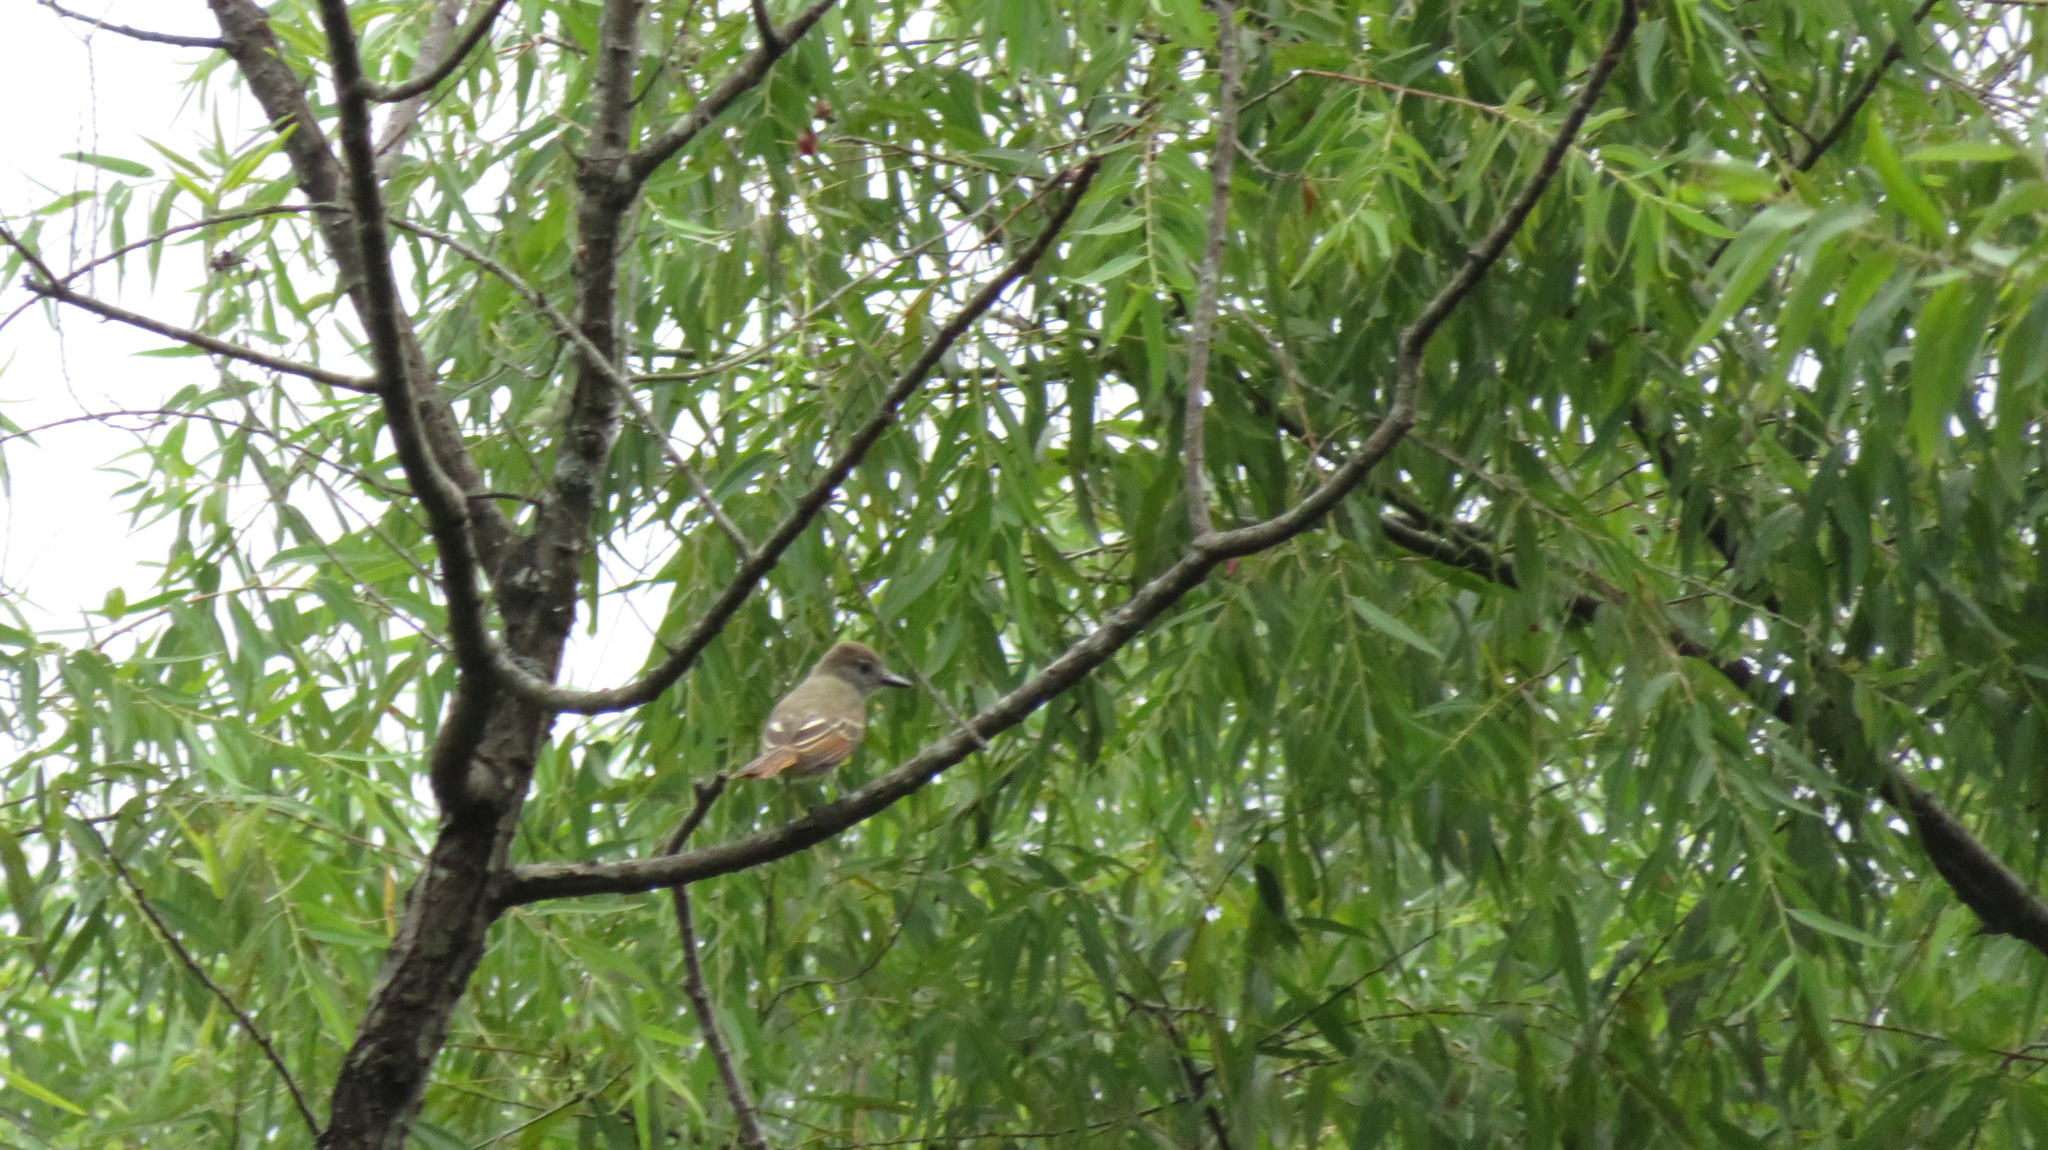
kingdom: Animalia
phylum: Chordata
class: Aves
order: Passeriformes
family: Tyrannidae
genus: Myiarchus
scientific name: Myiarchus crinitus
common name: Great crested flycatcher
